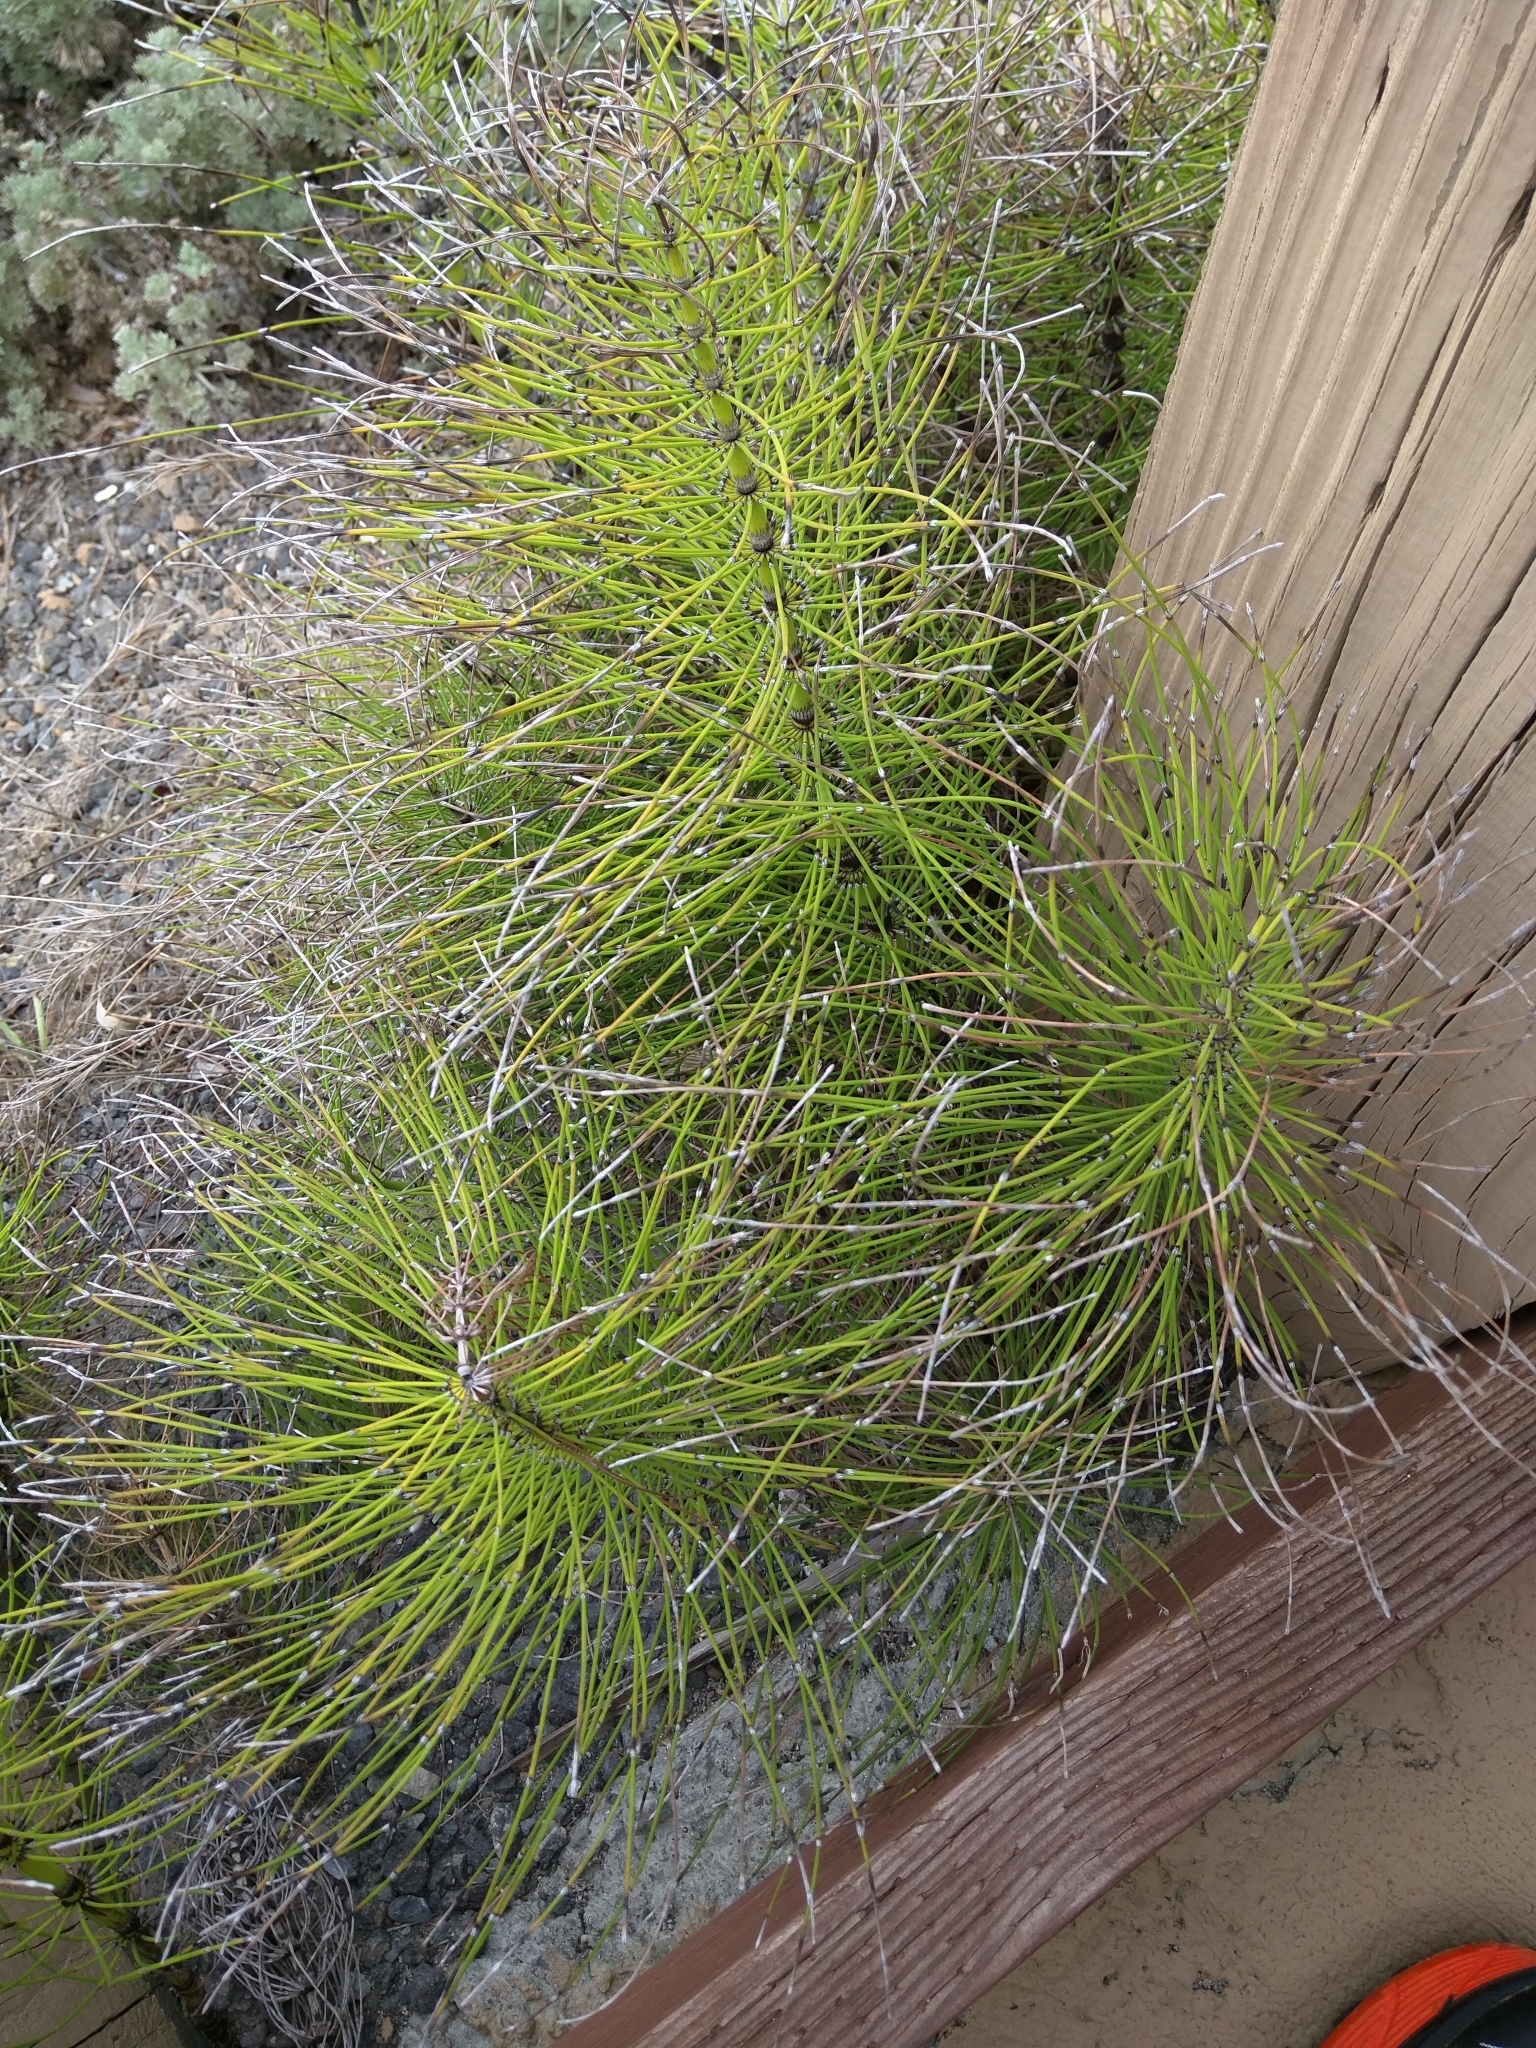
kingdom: Plantae
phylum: Tracheophyta
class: Polypodiopsida
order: Equisetales
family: Equisetaceae
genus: Equisetum
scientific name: Equisetum telmateia
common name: Great horsetail
